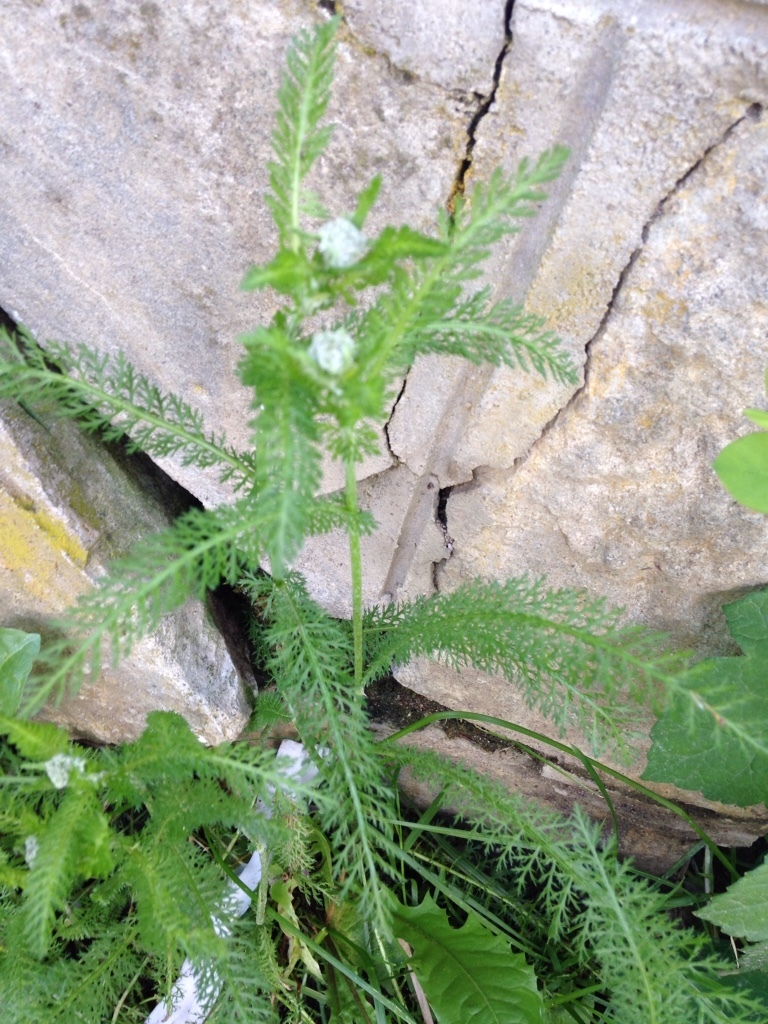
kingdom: Plantae
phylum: Tracheophyta
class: Magnoliopsida
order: Asterales
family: Asteraceae
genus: Achillea
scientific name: Achillea millefolium
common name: Yarrow
